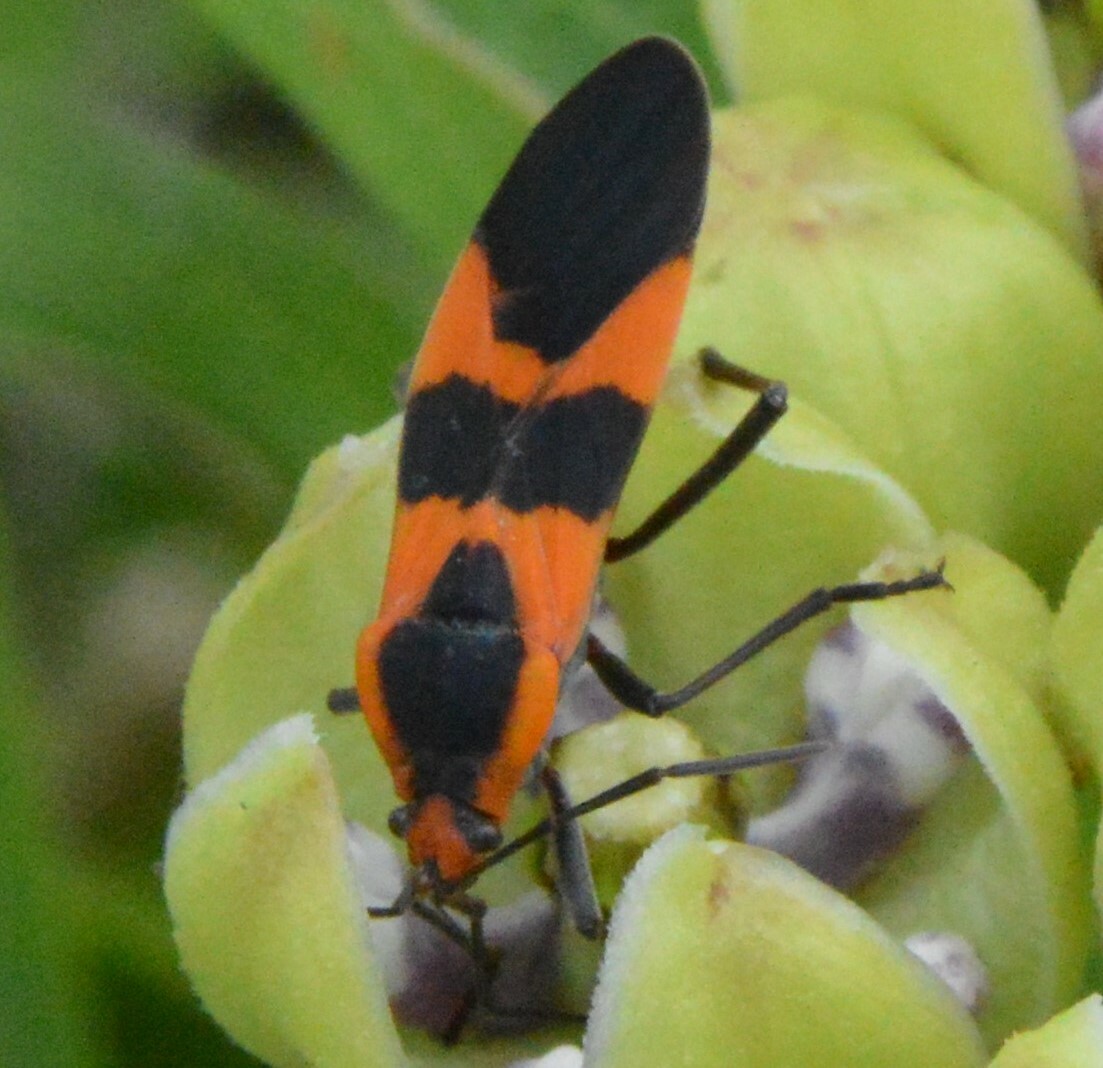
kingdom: Animalia
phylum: Arthropoda
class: Insecta
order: Hemiptera
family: Lygaeidae
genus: Oncopeltus
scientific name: Oncopeltus fasciatus
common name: Large milkweed bug
